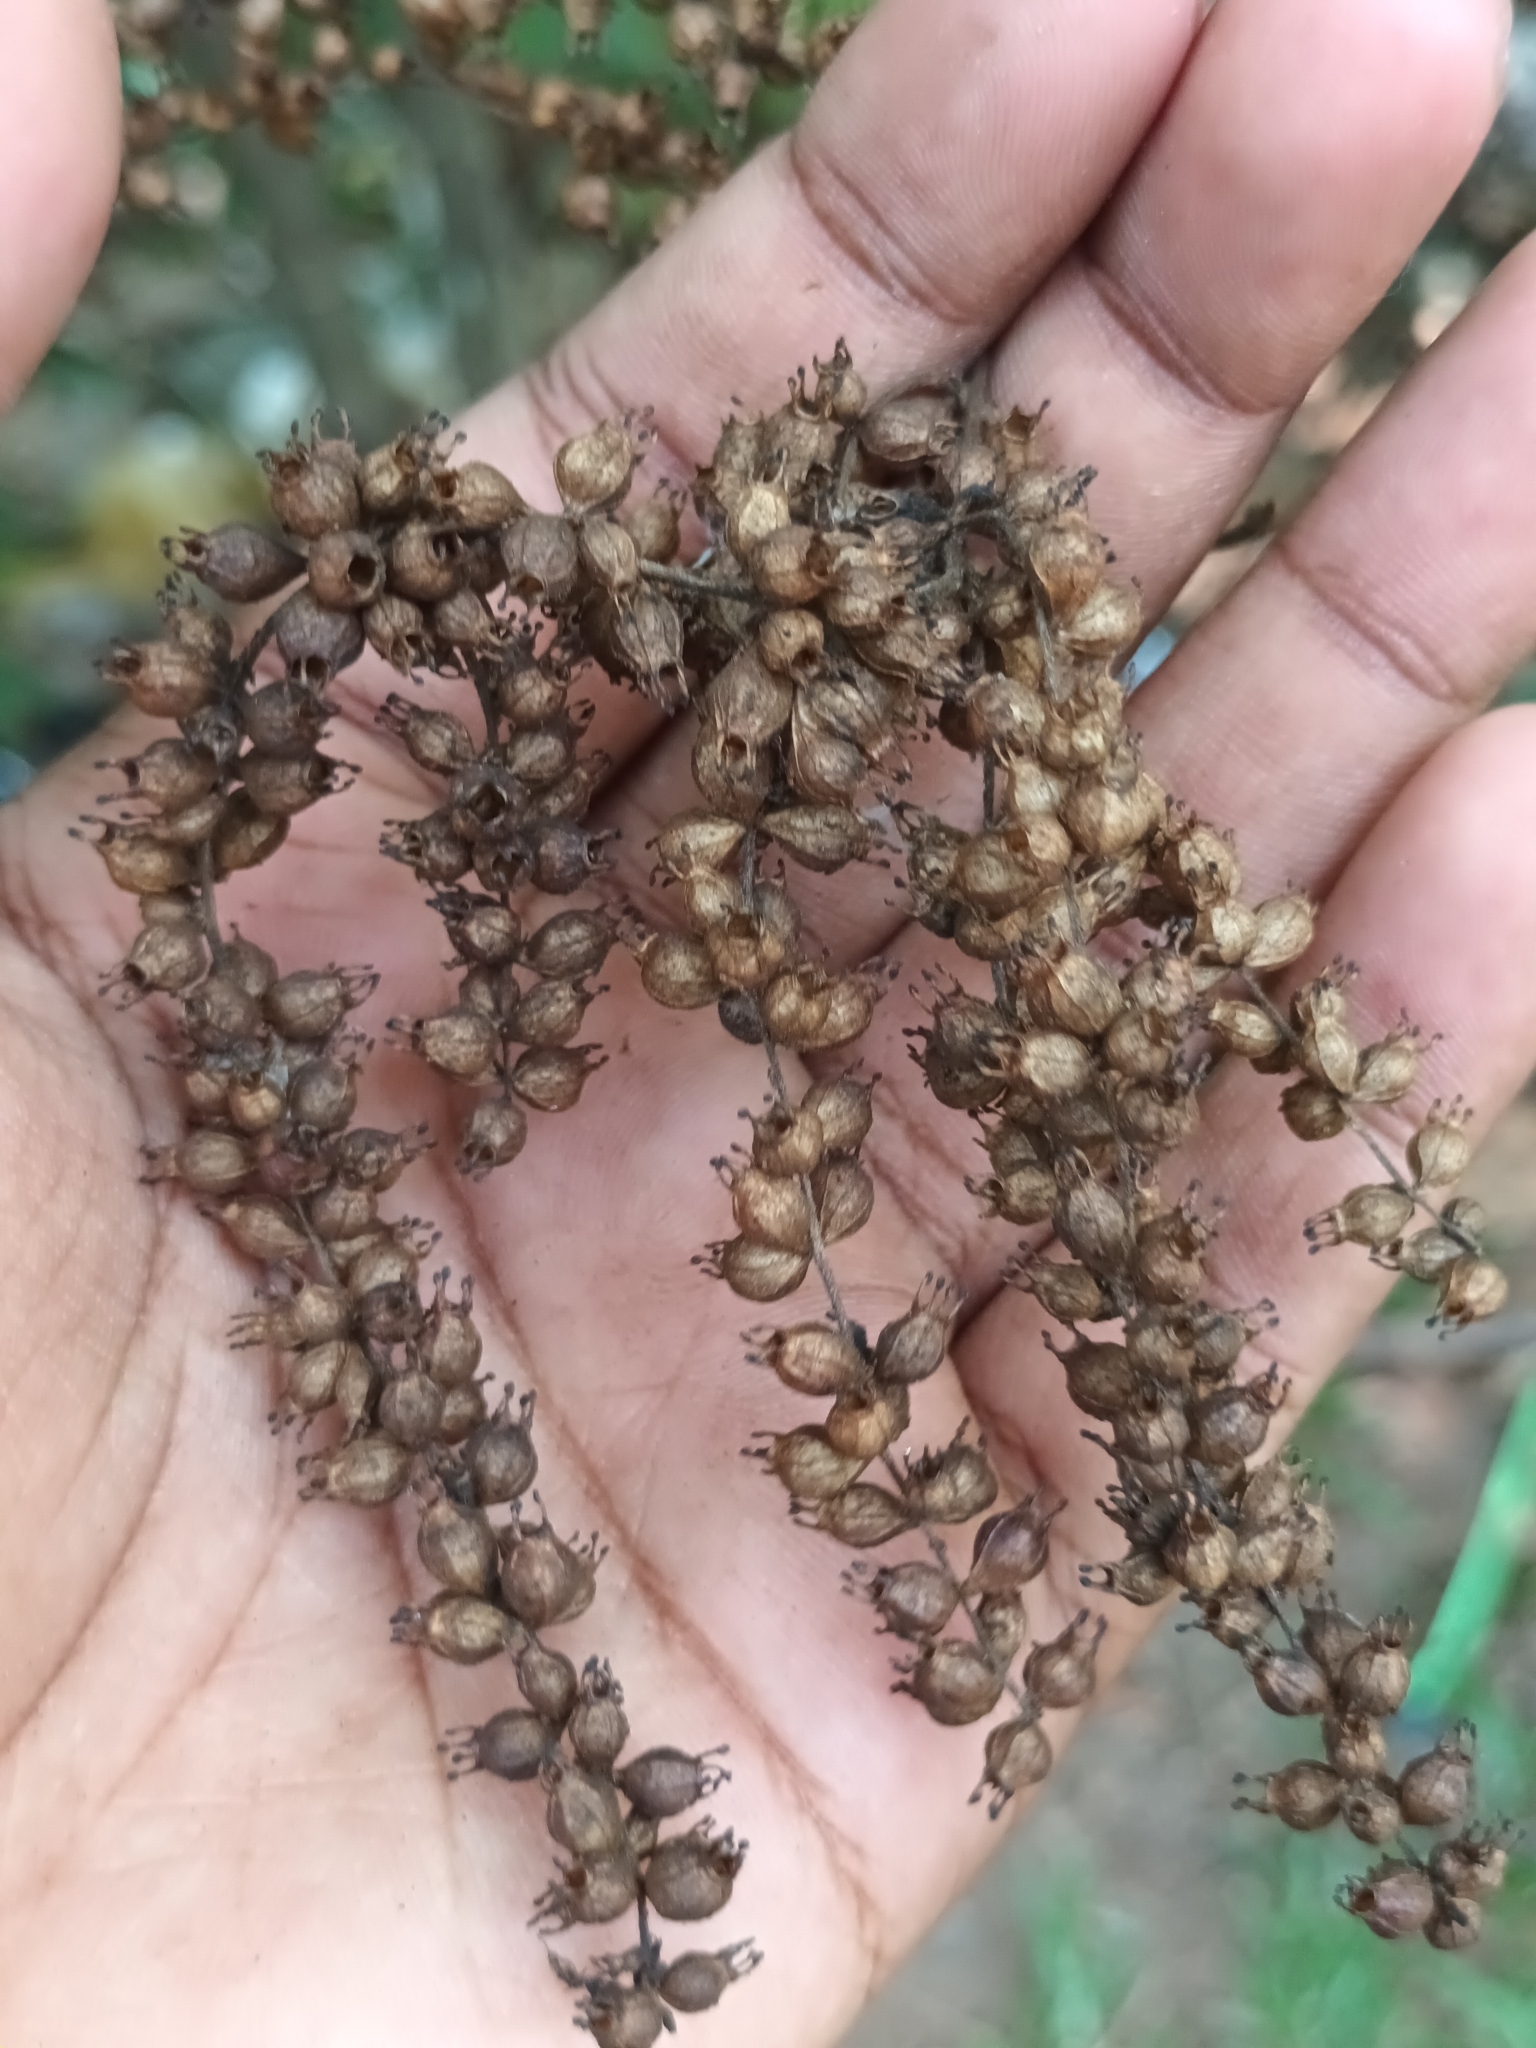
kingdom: Plantae
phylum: Tracheophyta
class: Magnoliopsida
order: Cucurbitales
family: Tetramelaceae
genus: Tetrameles
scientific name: Tetrameles nudiflora
